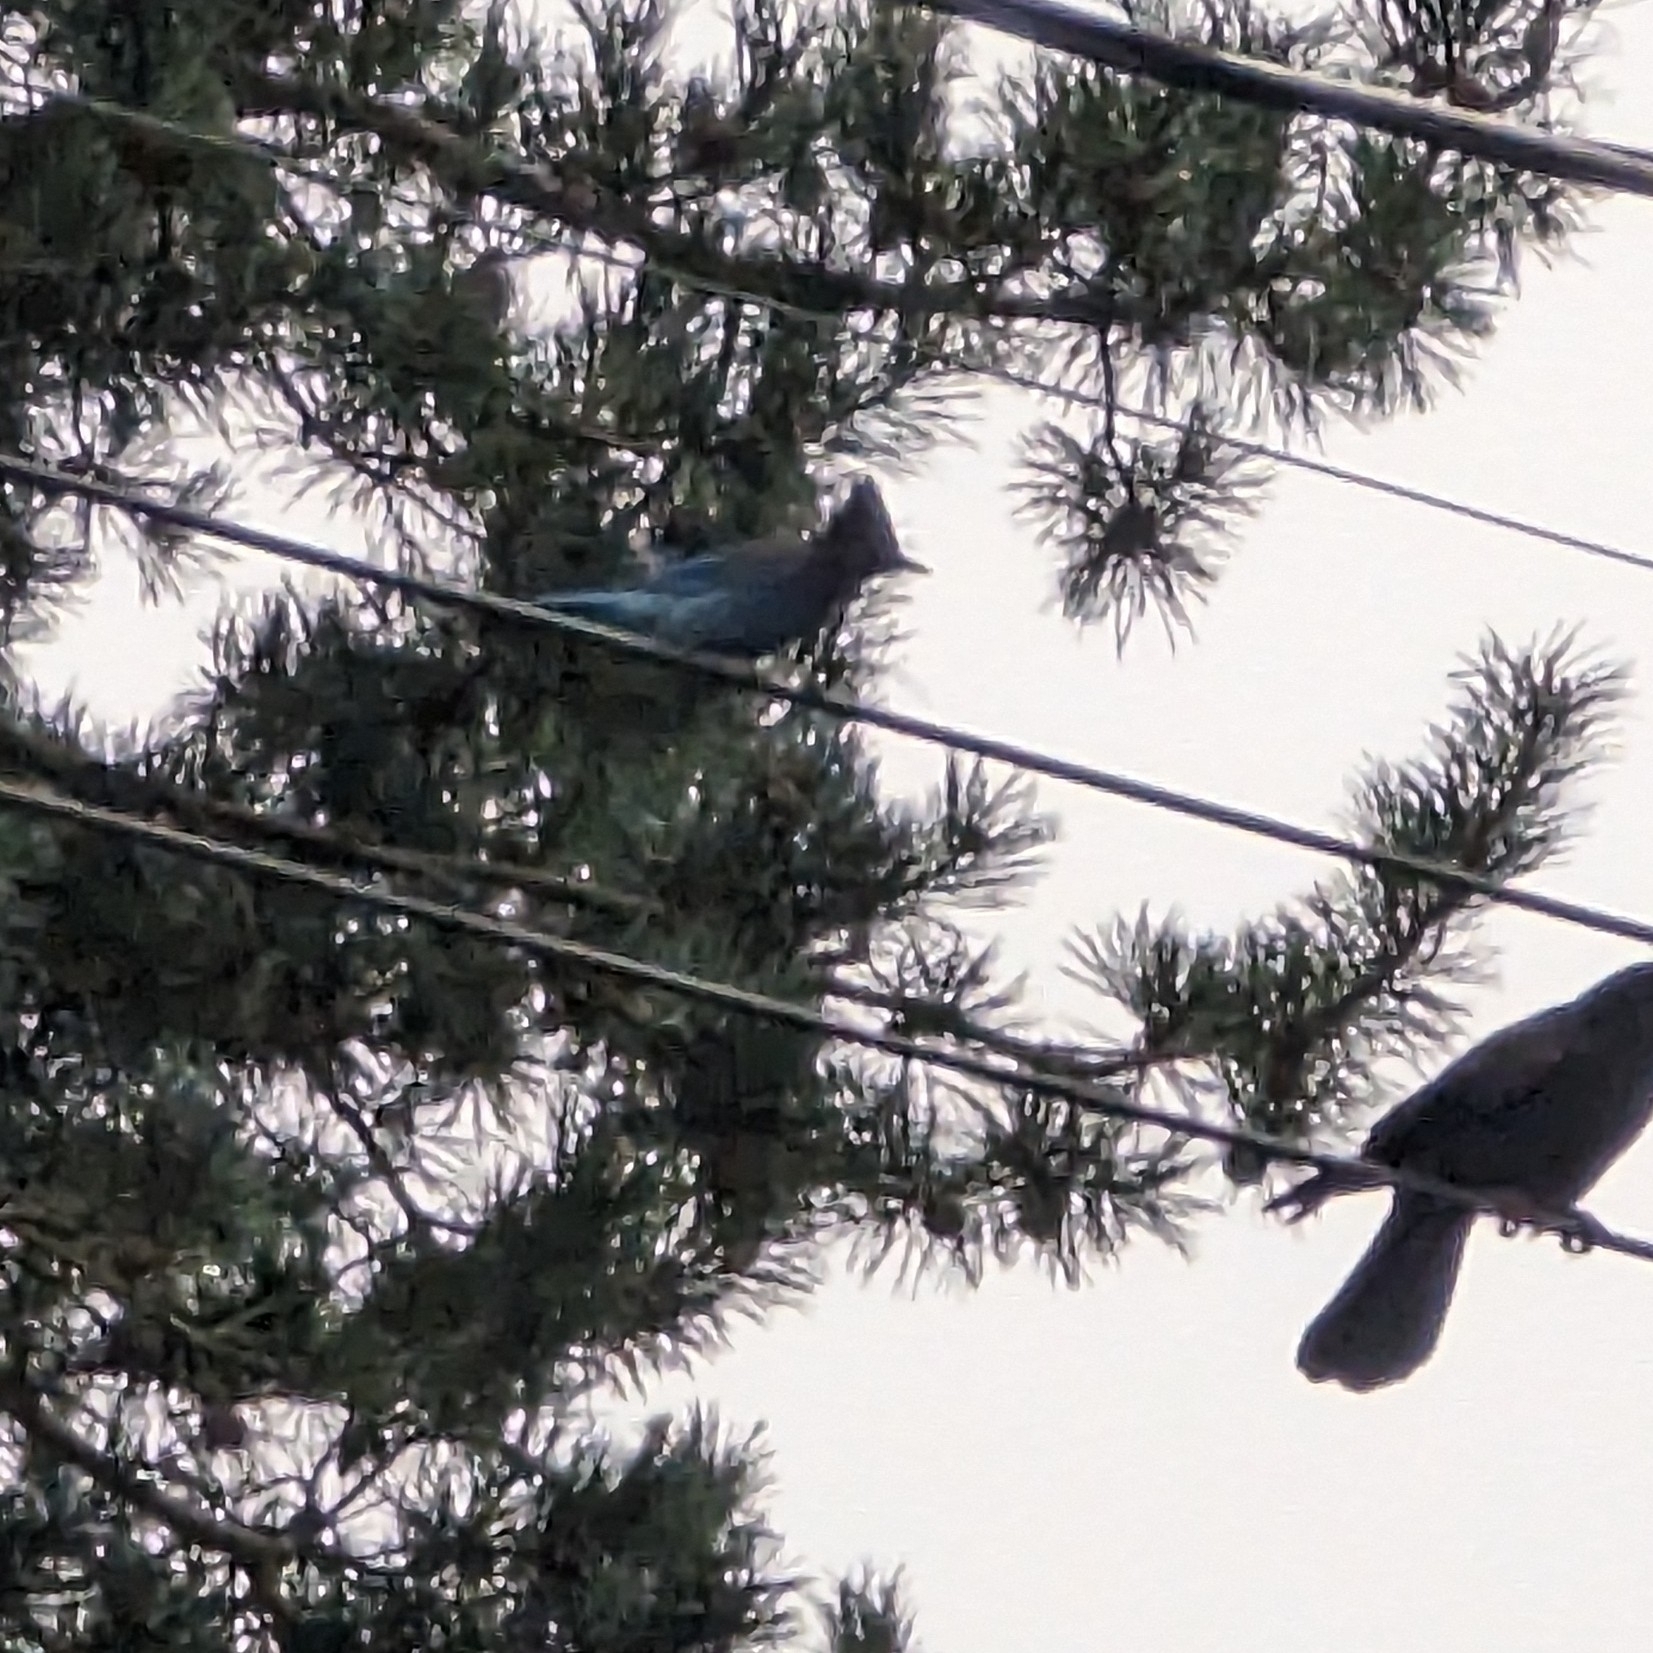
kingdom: Animalia
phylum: Chordata
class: Aves
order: Passeriformes
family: Corvidae
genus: Cyanocitta
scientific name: Cyanocitta stelleri
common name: Steller's jay
